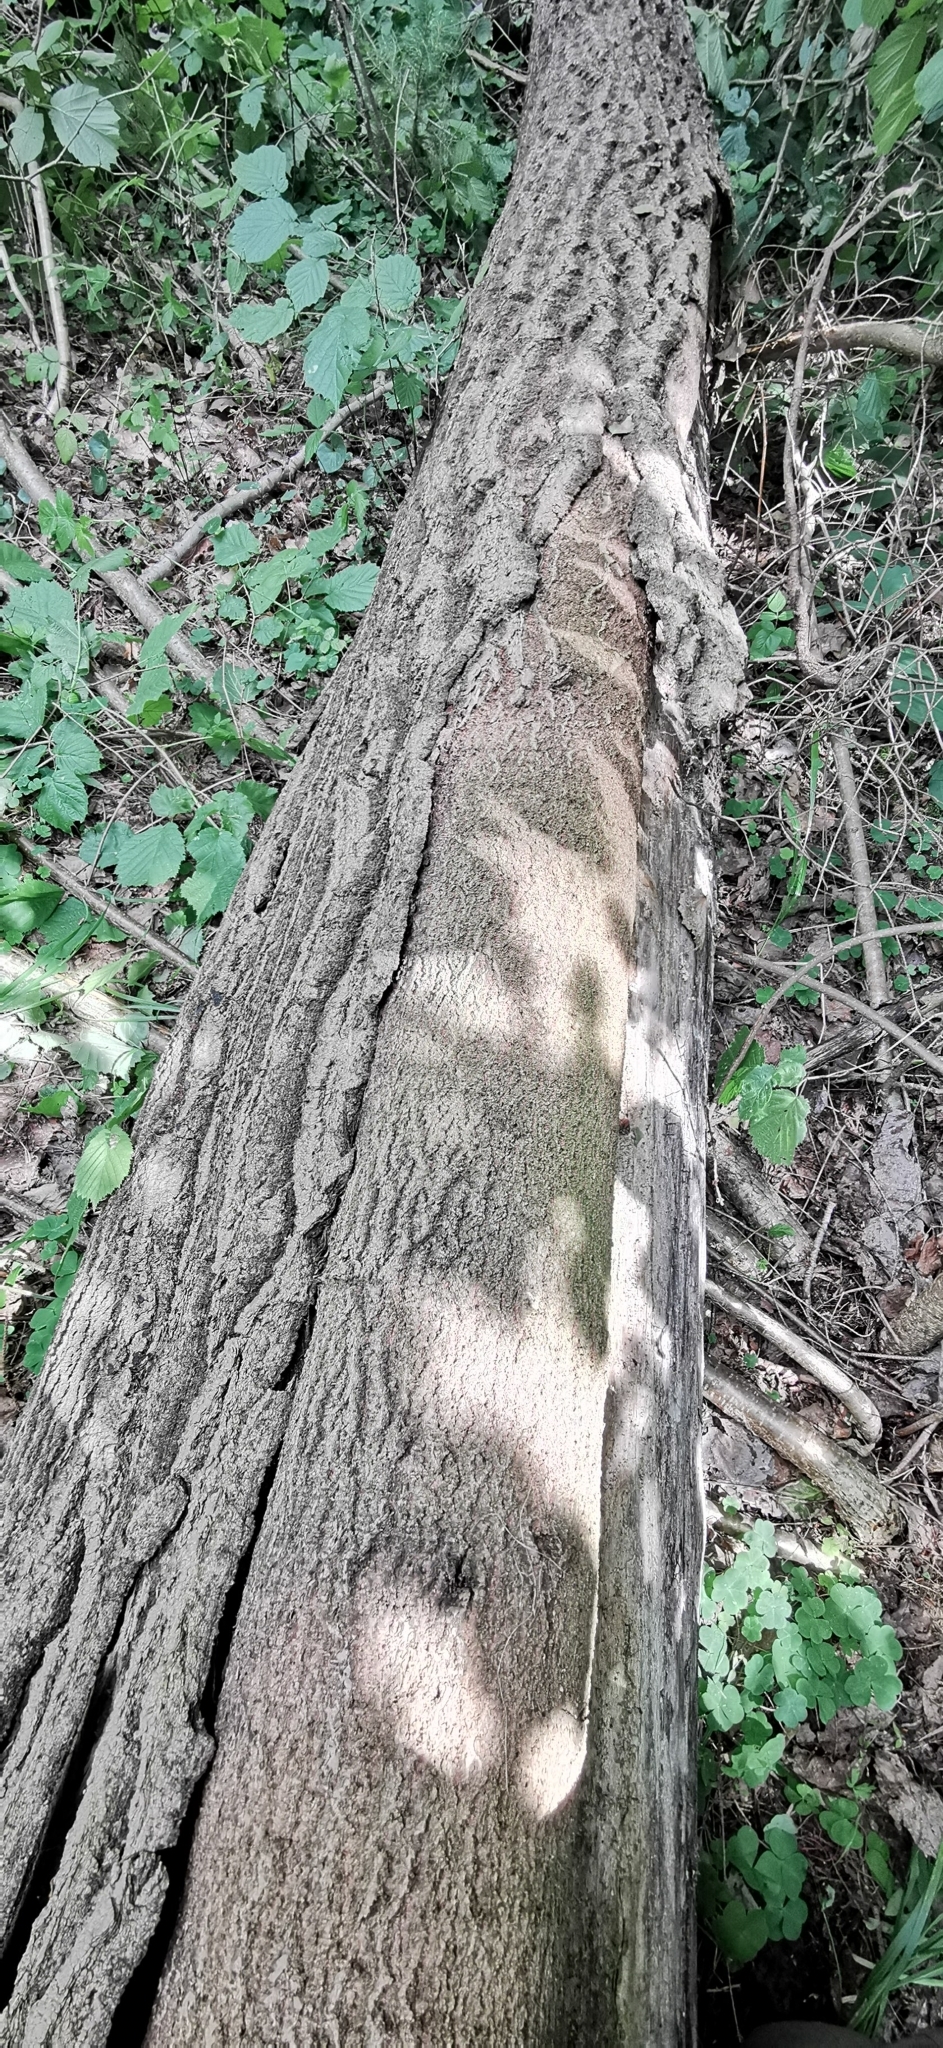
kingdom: Plantae
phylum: Tracheophyta
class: Magnoliopsida
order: Malpighiales
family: Salicaceae
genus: Populus
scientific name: Populus tremula
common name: European aspen
